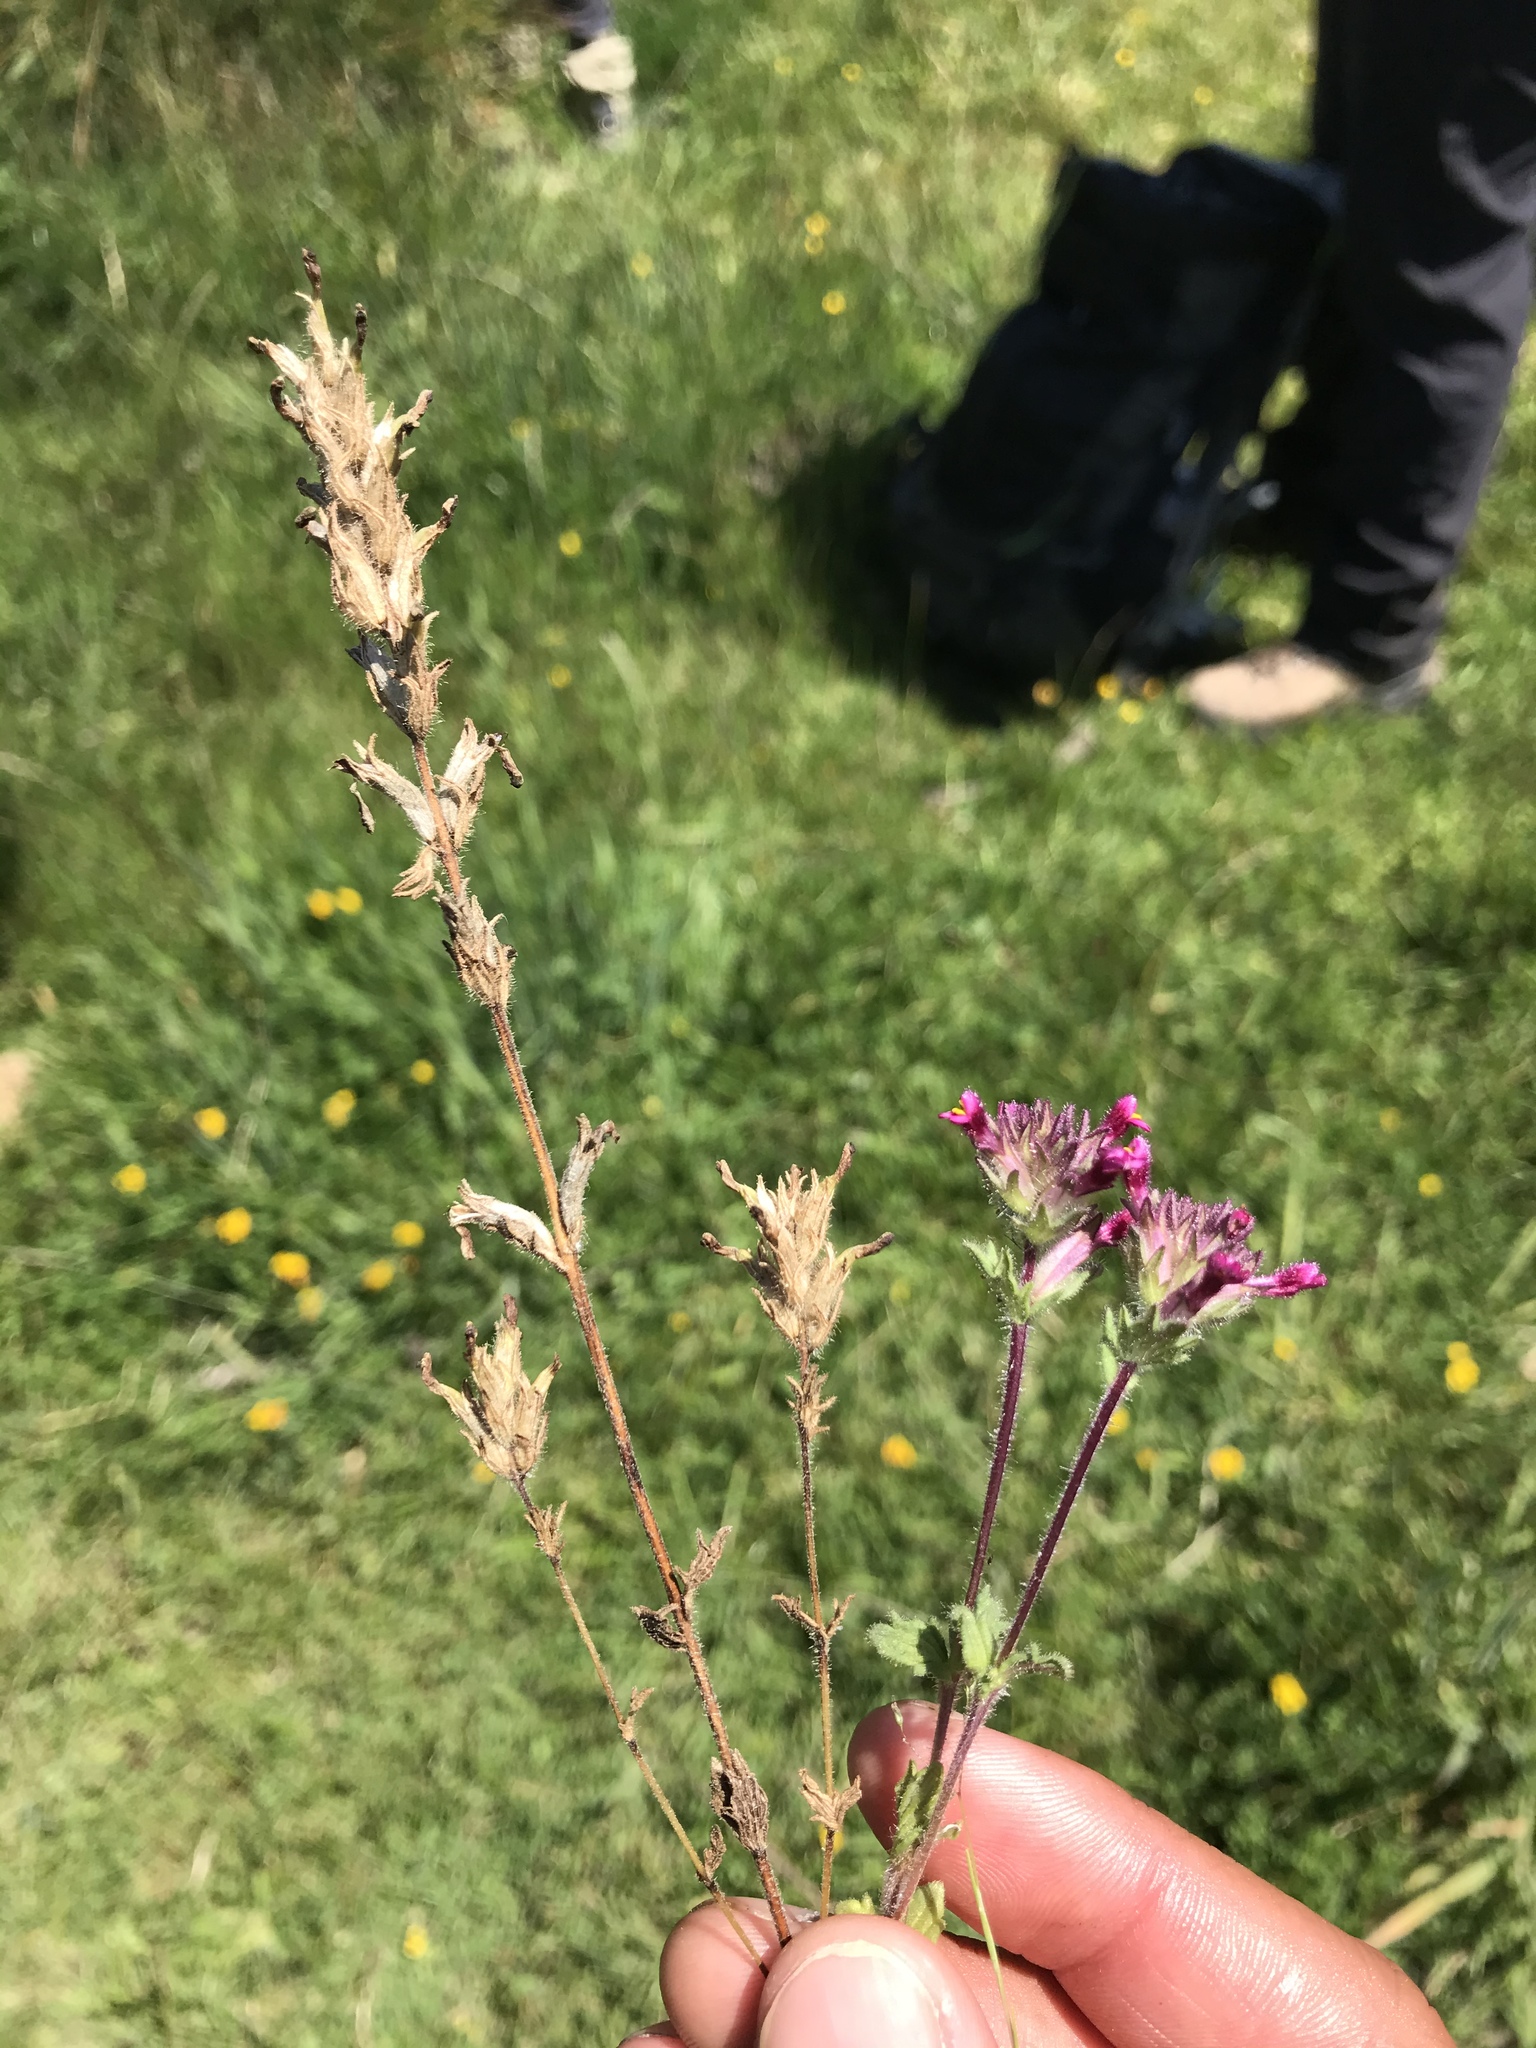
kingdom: Plantae
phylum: Tracheophyta
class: Magnoliopsida
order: Lamiales
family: Orobanchaceae
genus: Parentucellia
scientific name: Parentucellia latifolia
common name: Broadleaf glandweed
